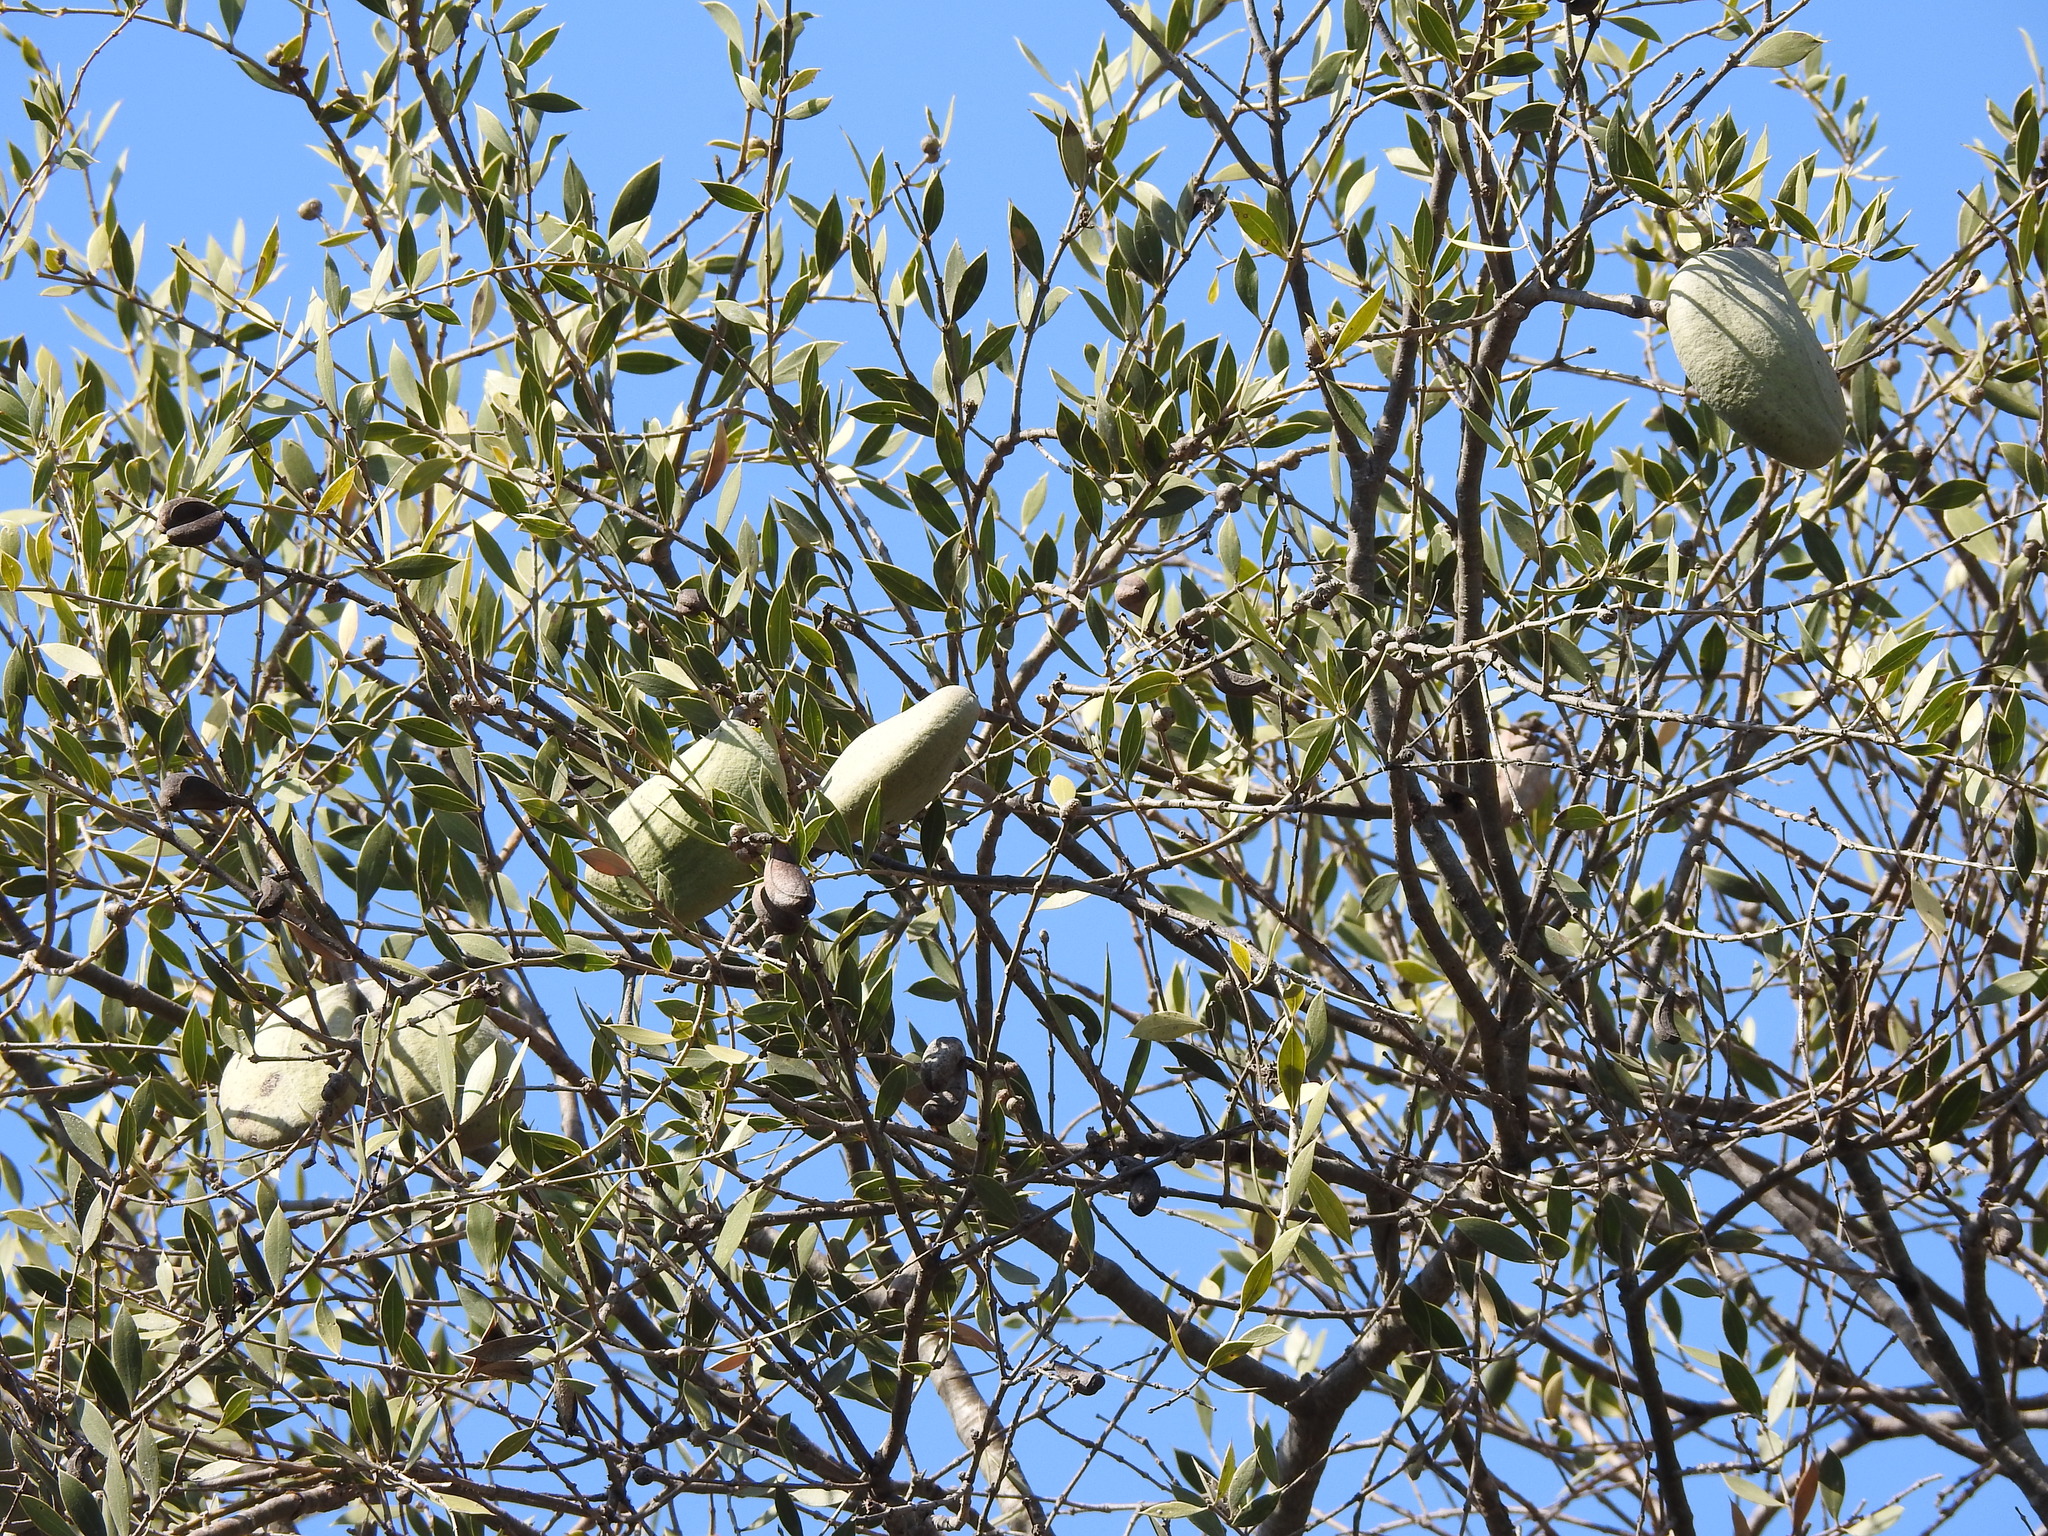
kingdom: Plantae
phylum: Tracheophyta
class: Magnoliopsida
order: Gentianales
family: Apocynaceae
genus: Aspidosperma
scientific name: Aspidosperma quebracho-blanco
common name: White quebracho
